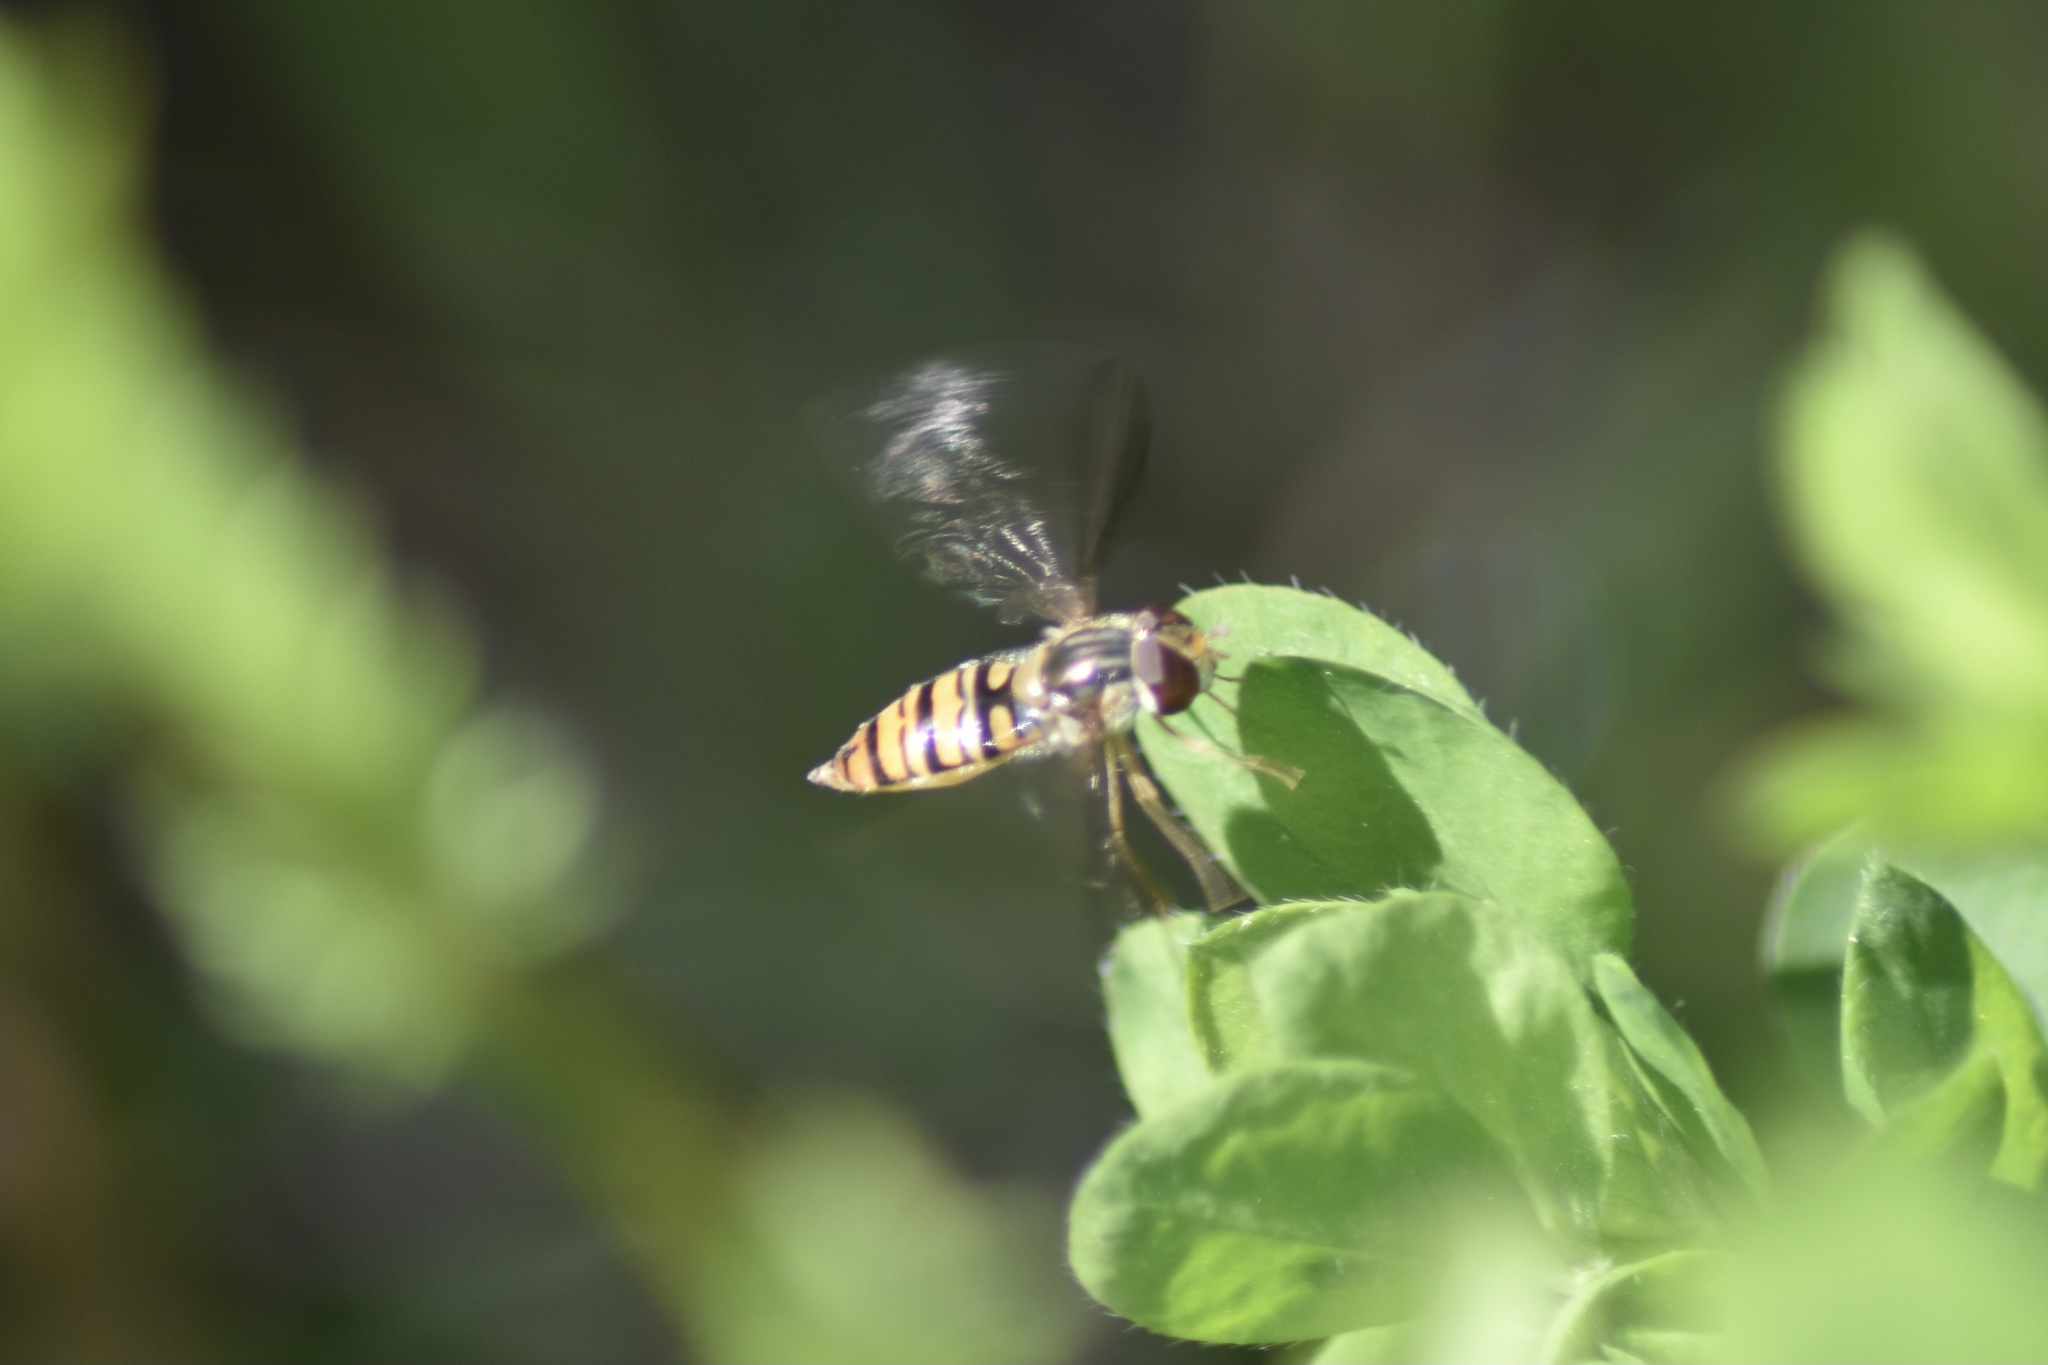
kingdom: Animalia
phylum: Arthropoda
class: Insecta
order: Diptera
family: Syrphidae
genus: Episyrphus
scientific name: Episyrphus balteatus
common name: Marmalade hoverfly
